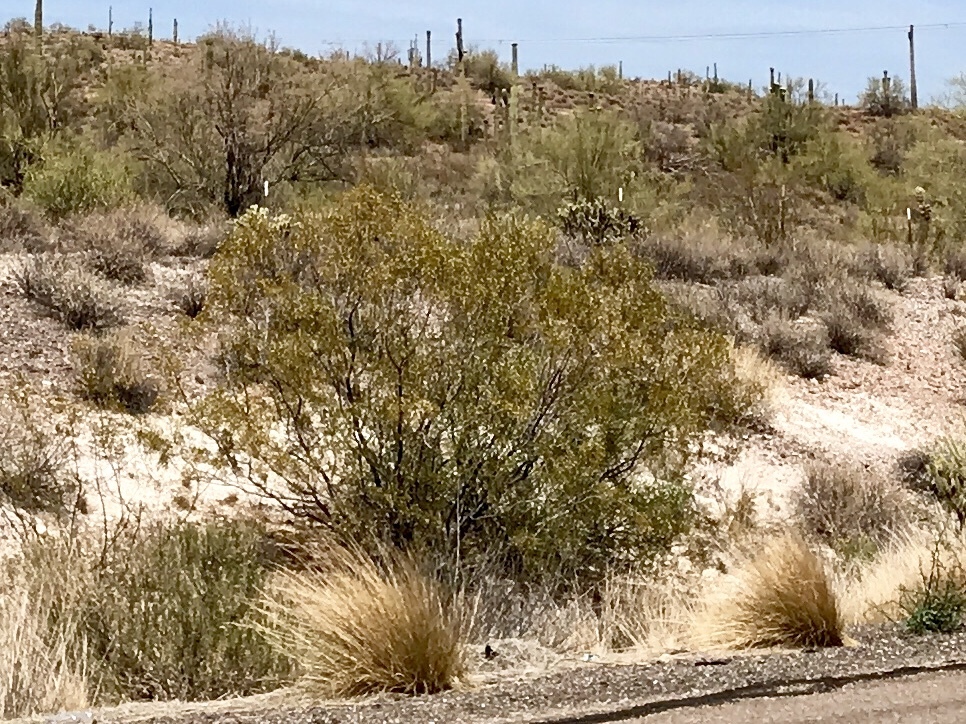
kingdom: Plantae
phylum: Tracheophyta
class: Magnoliopsida
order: Zygophyllales
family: Zygophyllaceae
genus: Larrea
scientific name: Larrea tridentata
